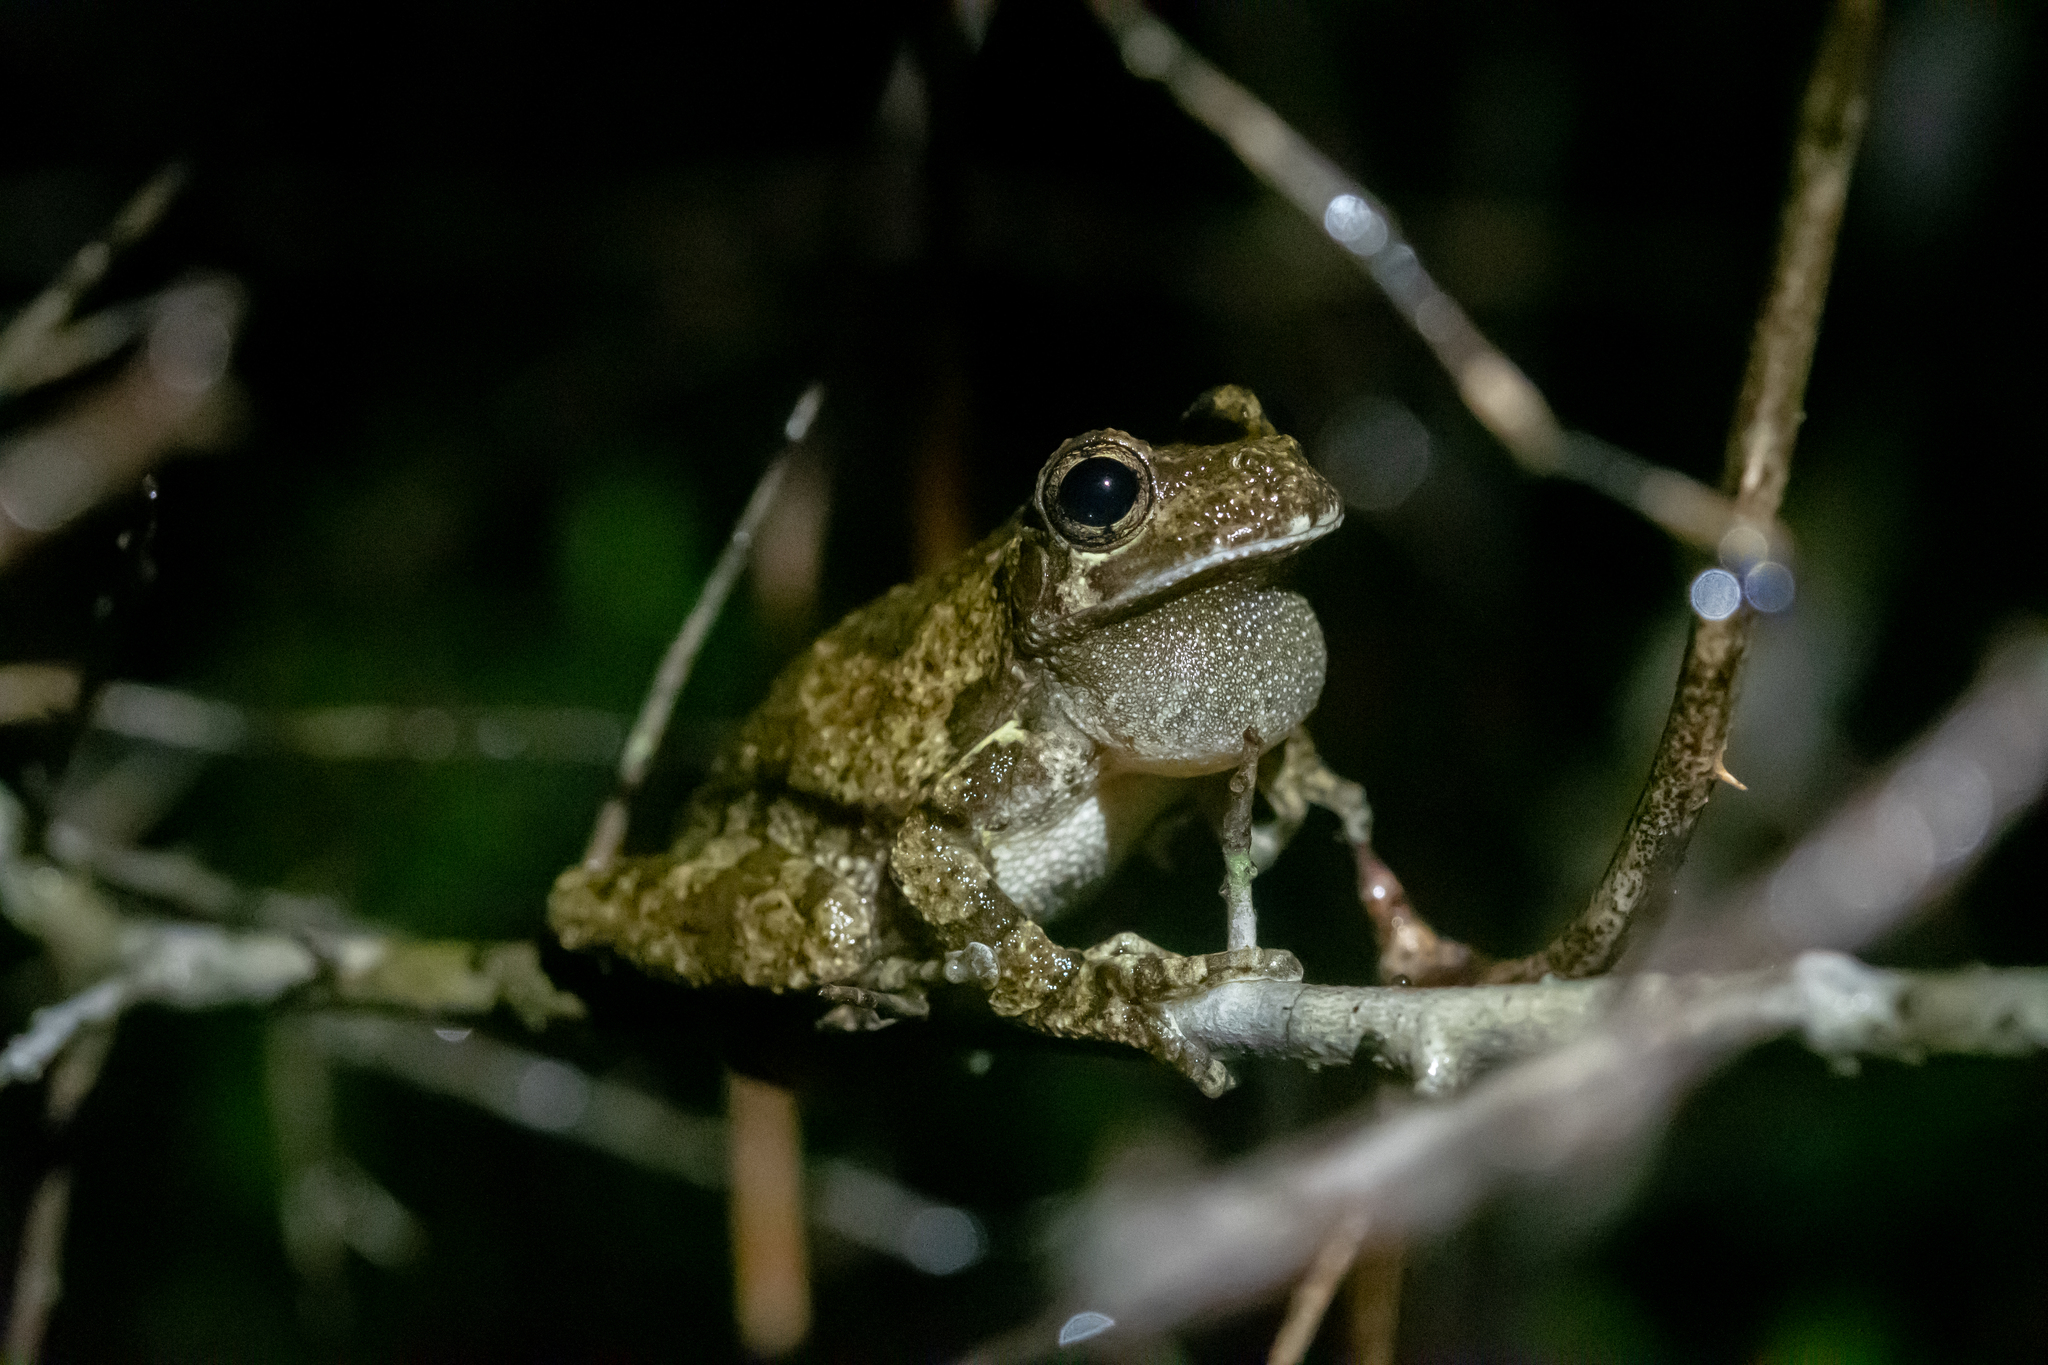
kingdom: Animalia
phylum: Chordata
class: Amphibia
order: Anura
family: Hylidae
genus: Dryophytes
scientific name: Dryophytes chrysoscelis
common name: Cope's gray treefrog
